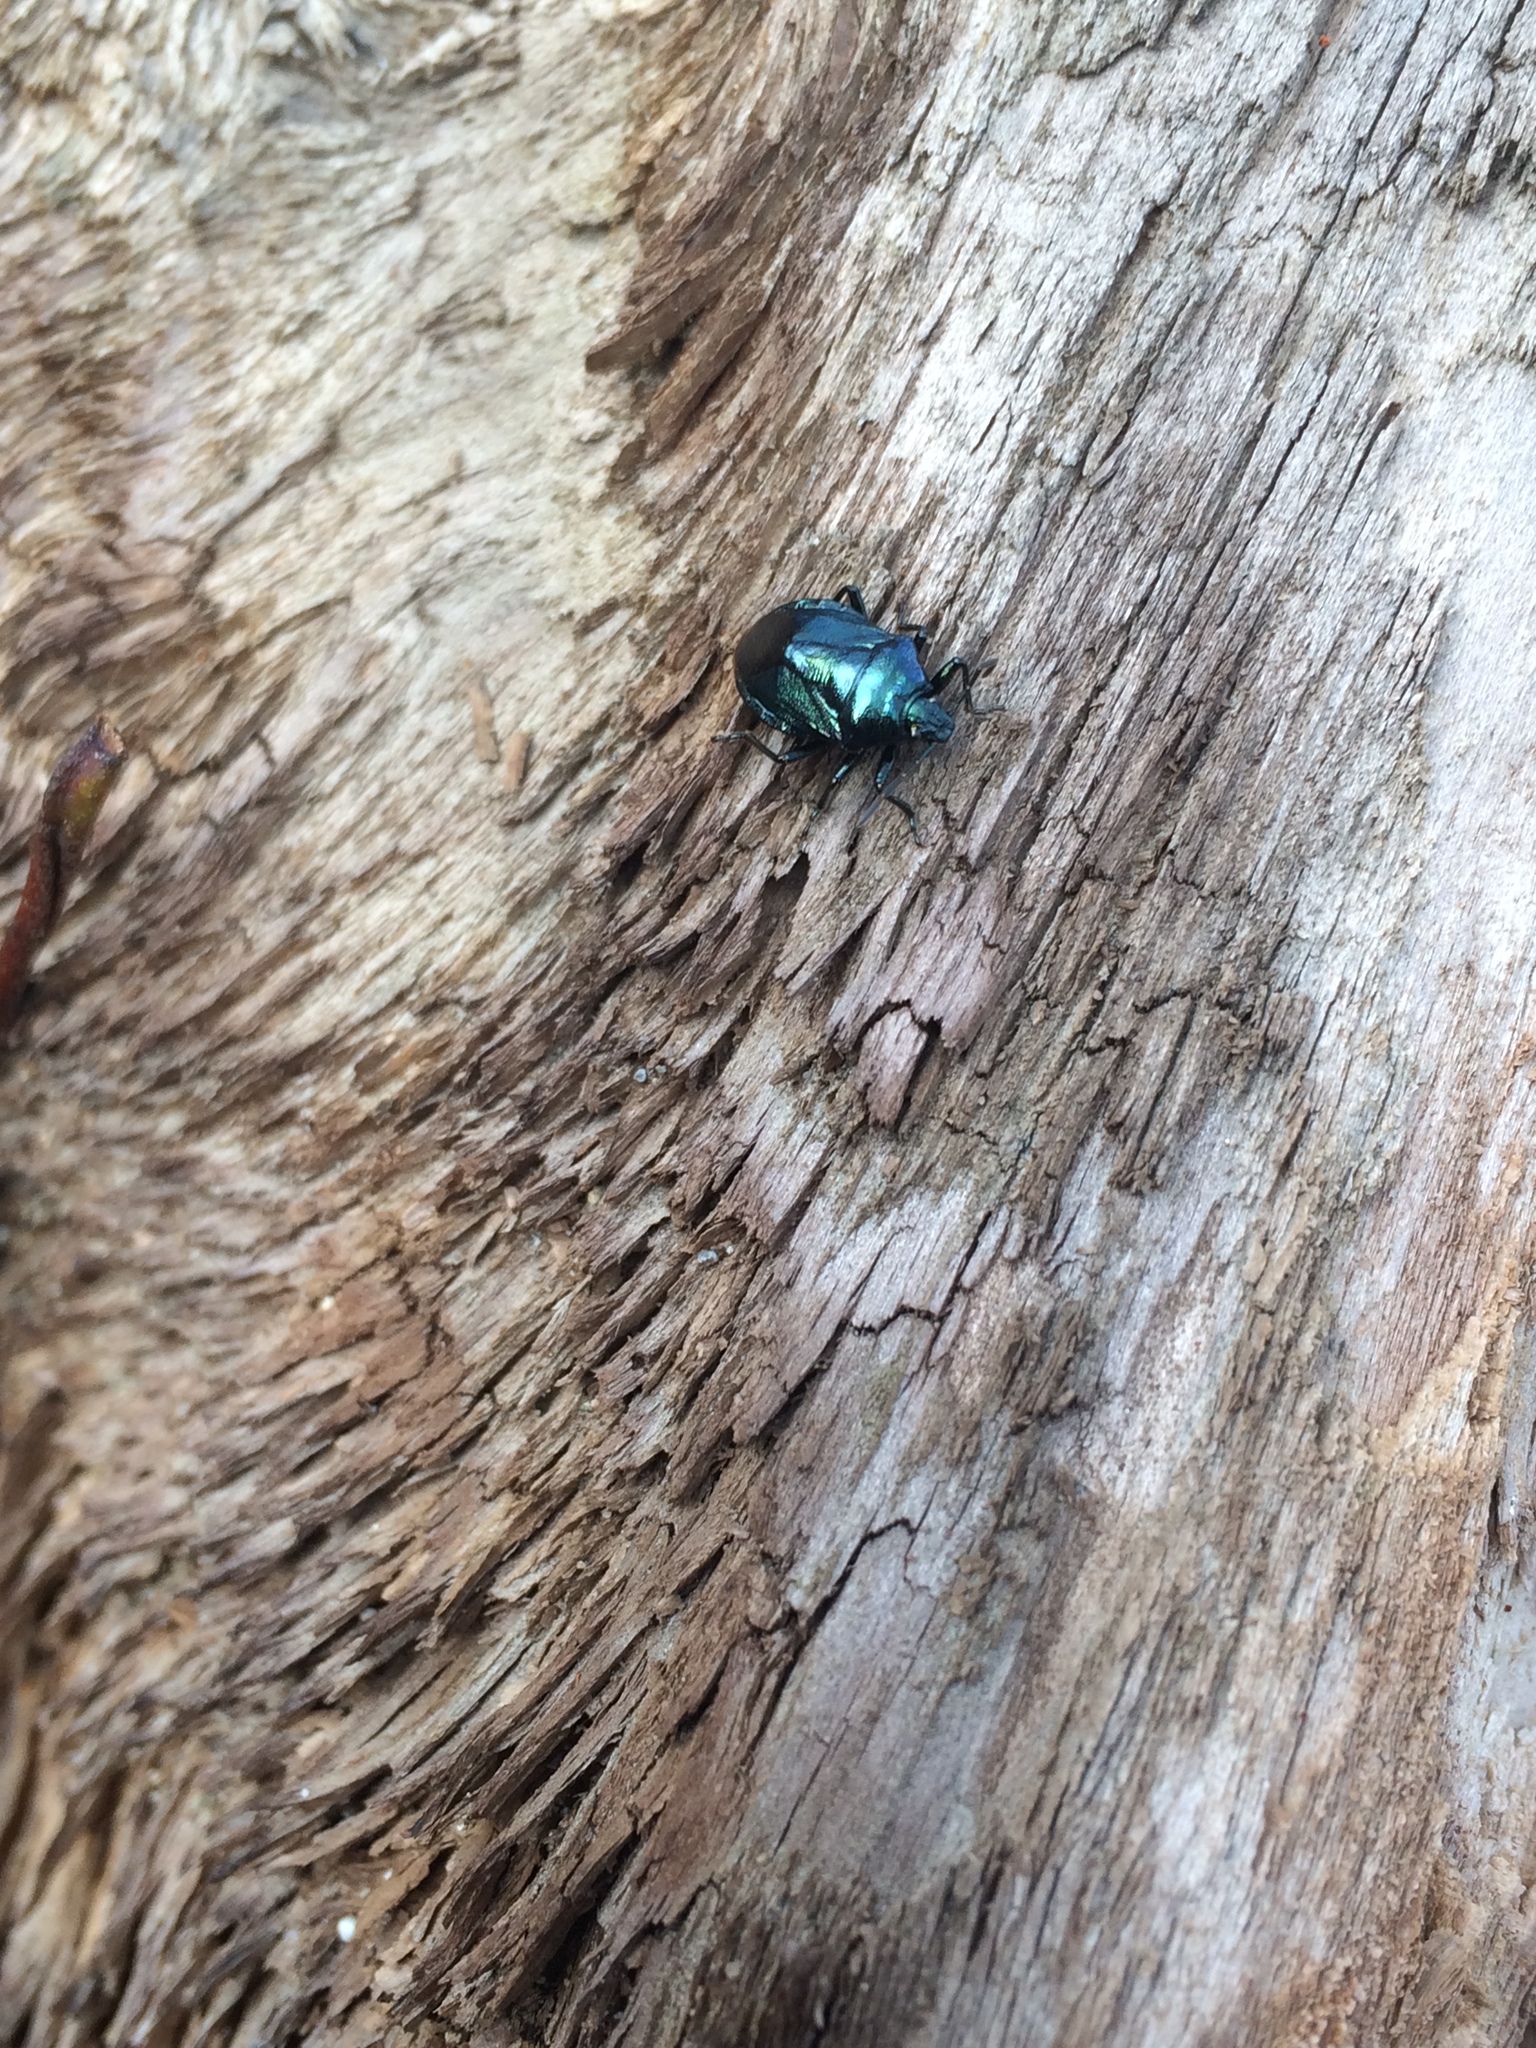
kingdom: Animalia
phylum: Arthropoda
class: Insecta
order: Hemiptera
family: Pentatomidae
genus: Zicrona
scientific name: Zicrona
